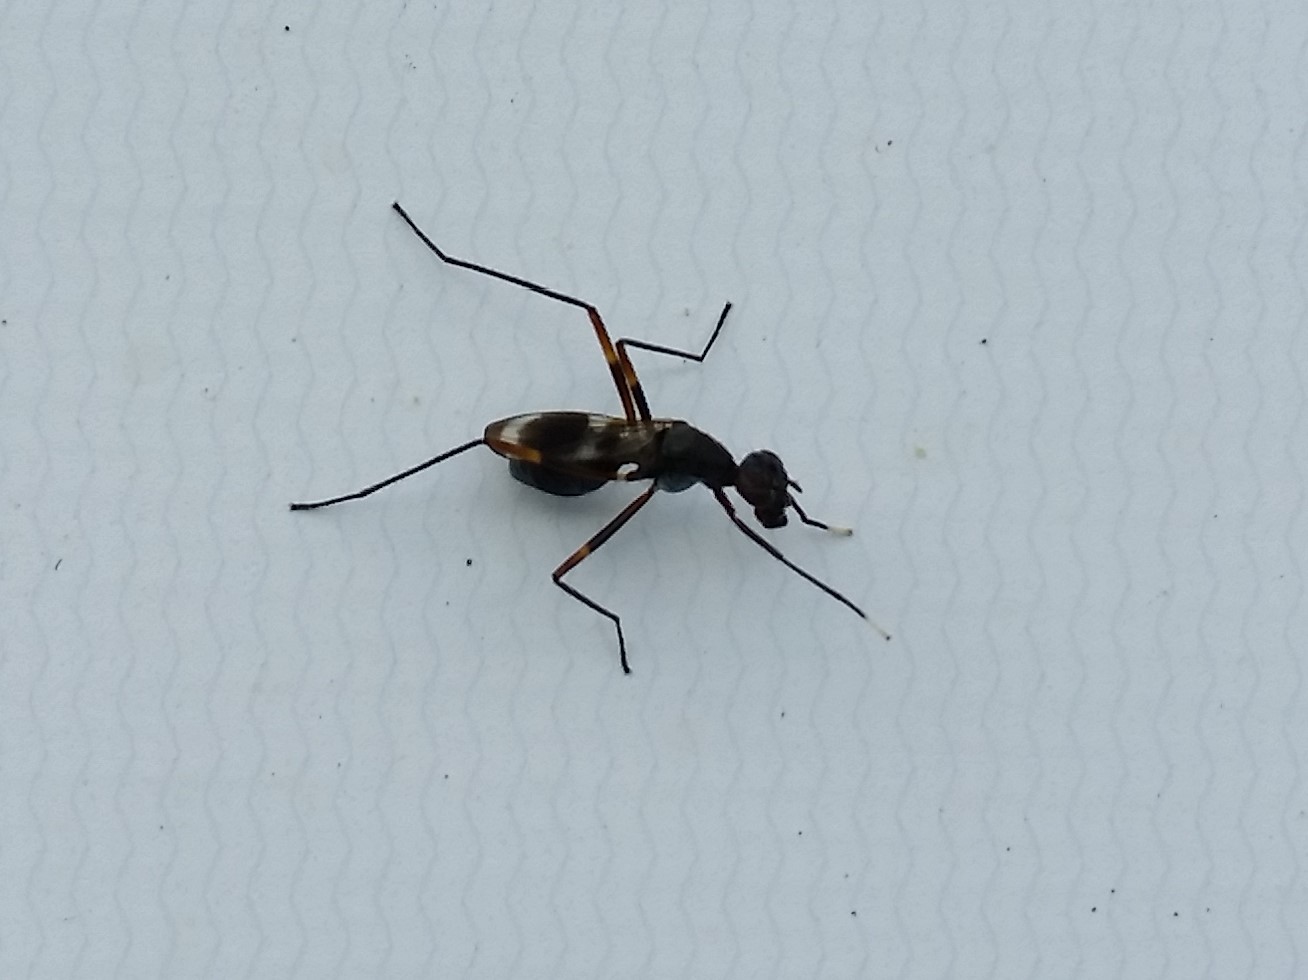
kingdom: Animalia
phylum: Arthropoda
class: Insecta
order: Diptera
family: Micropezidae
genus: Taeniaptera
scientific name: Taeniaptera trivittata
